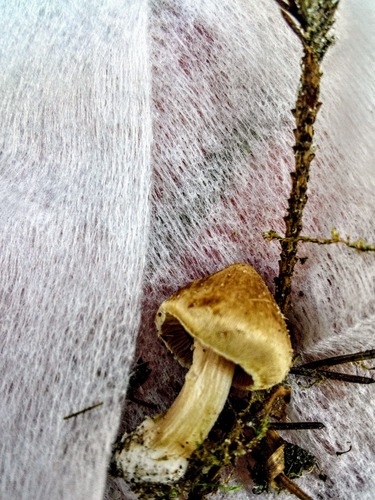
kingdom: Fungi
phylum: Basidiomycota
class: Agaricomycetes
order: Agaricales
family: Inocybaceae
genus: Inocybe
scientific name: Inocybe
